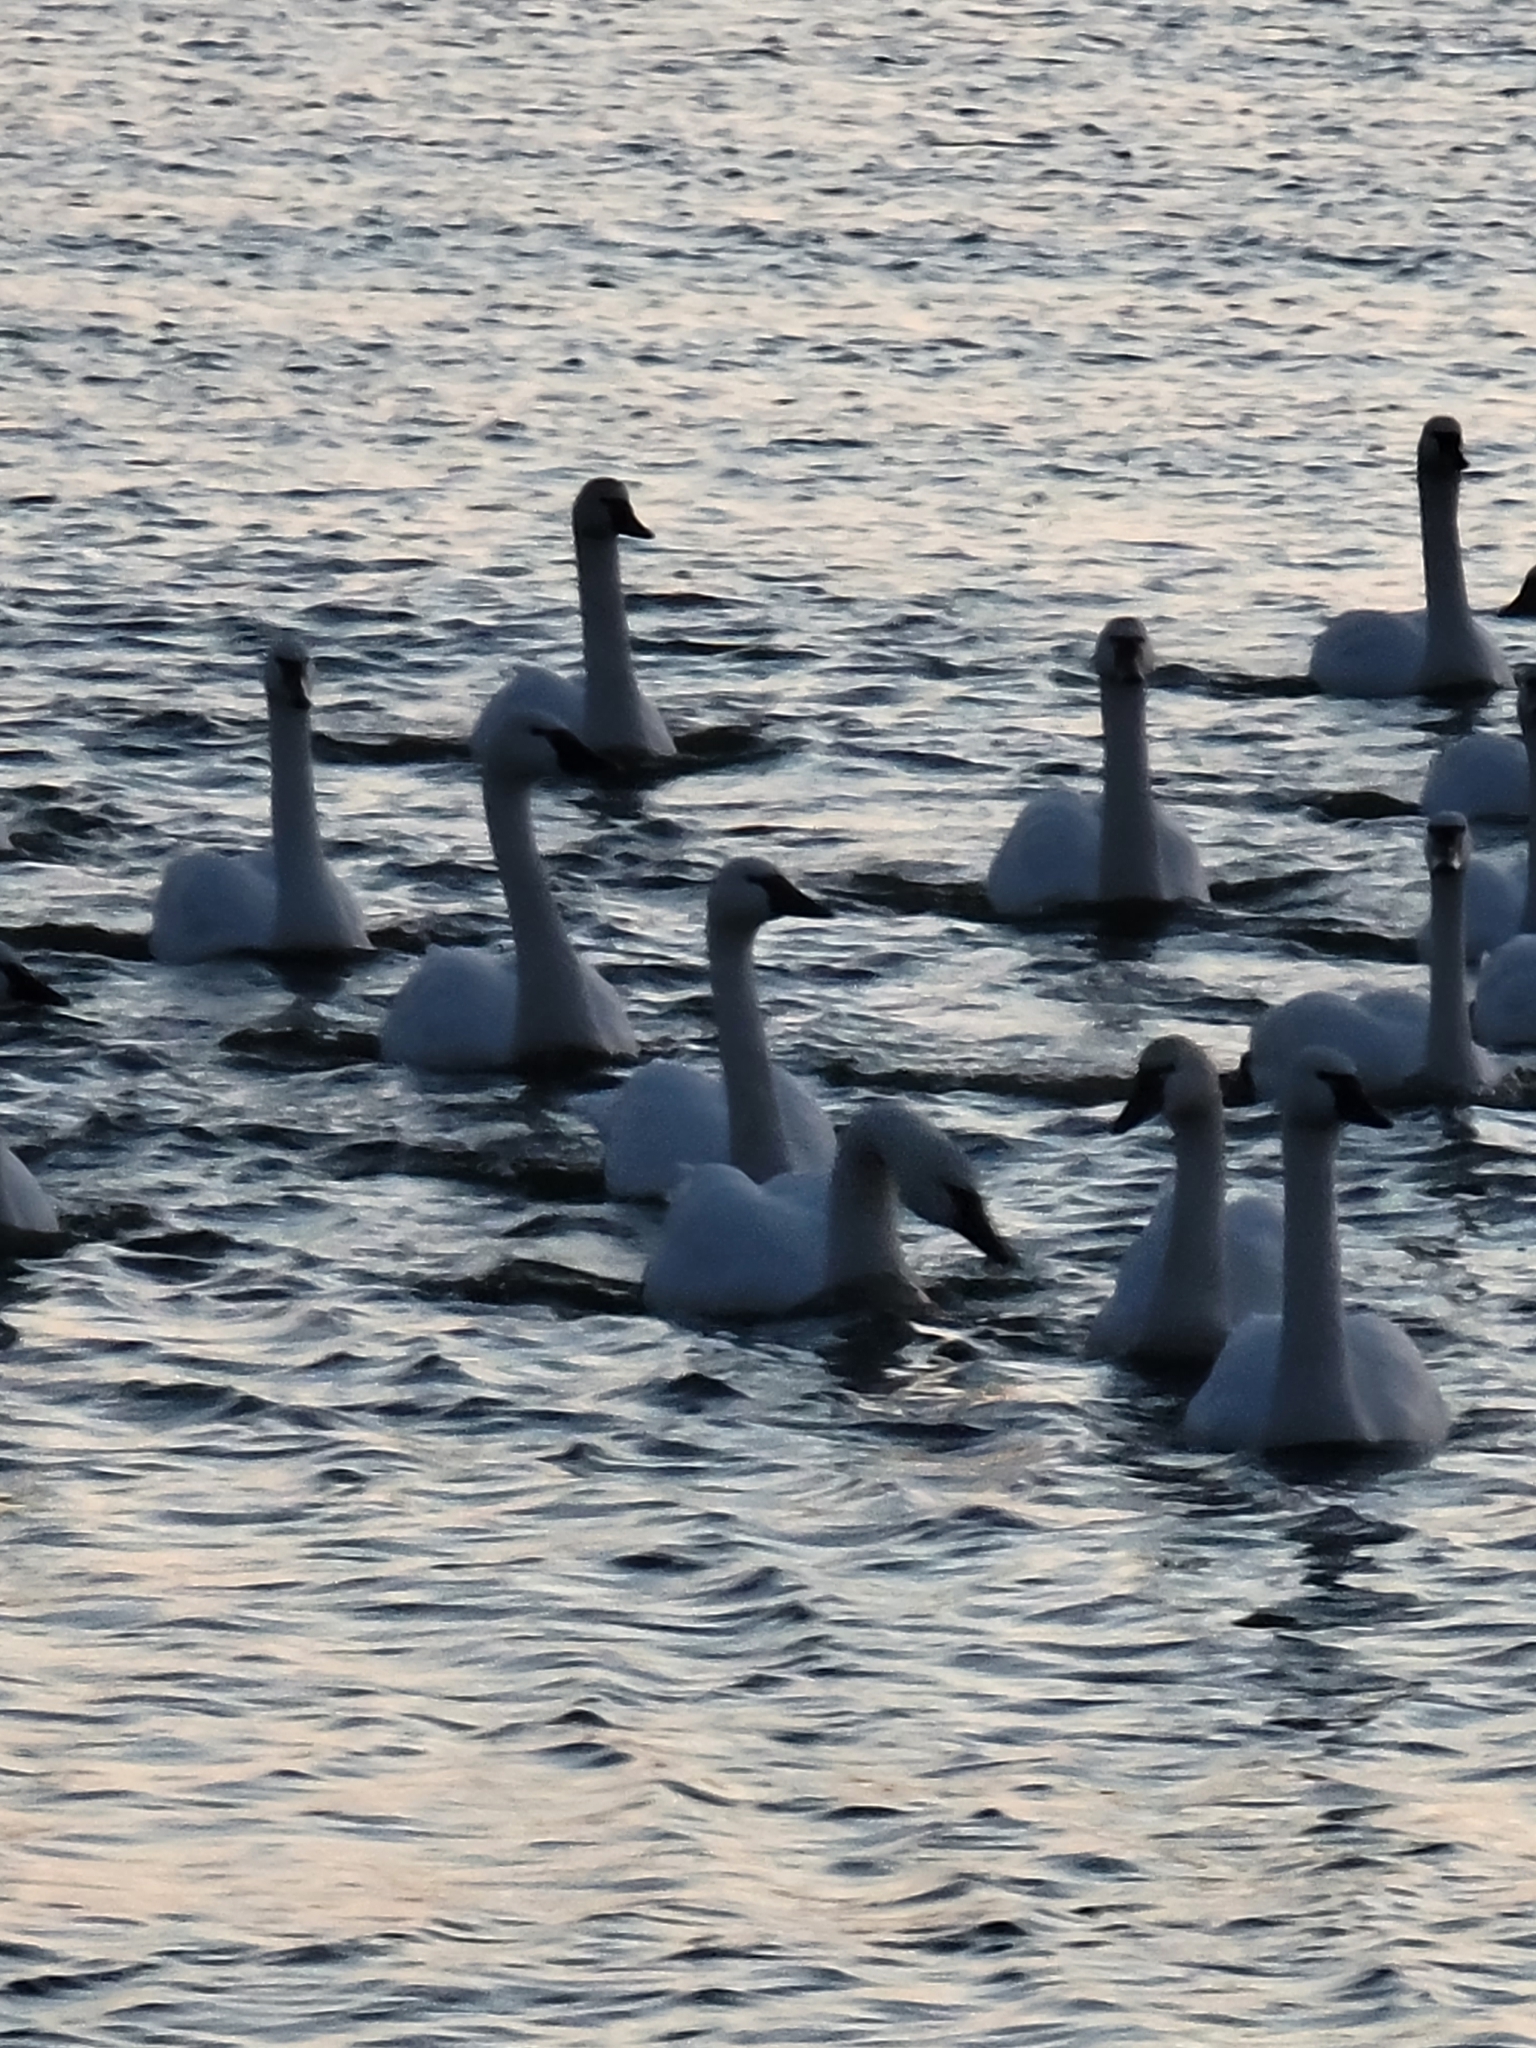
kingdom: Animalia
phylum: Chordata
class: Aves
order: Anseriformes
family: Anatidae
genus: Cygnus
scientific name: Cygnus columbianus
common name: Tundra swan
